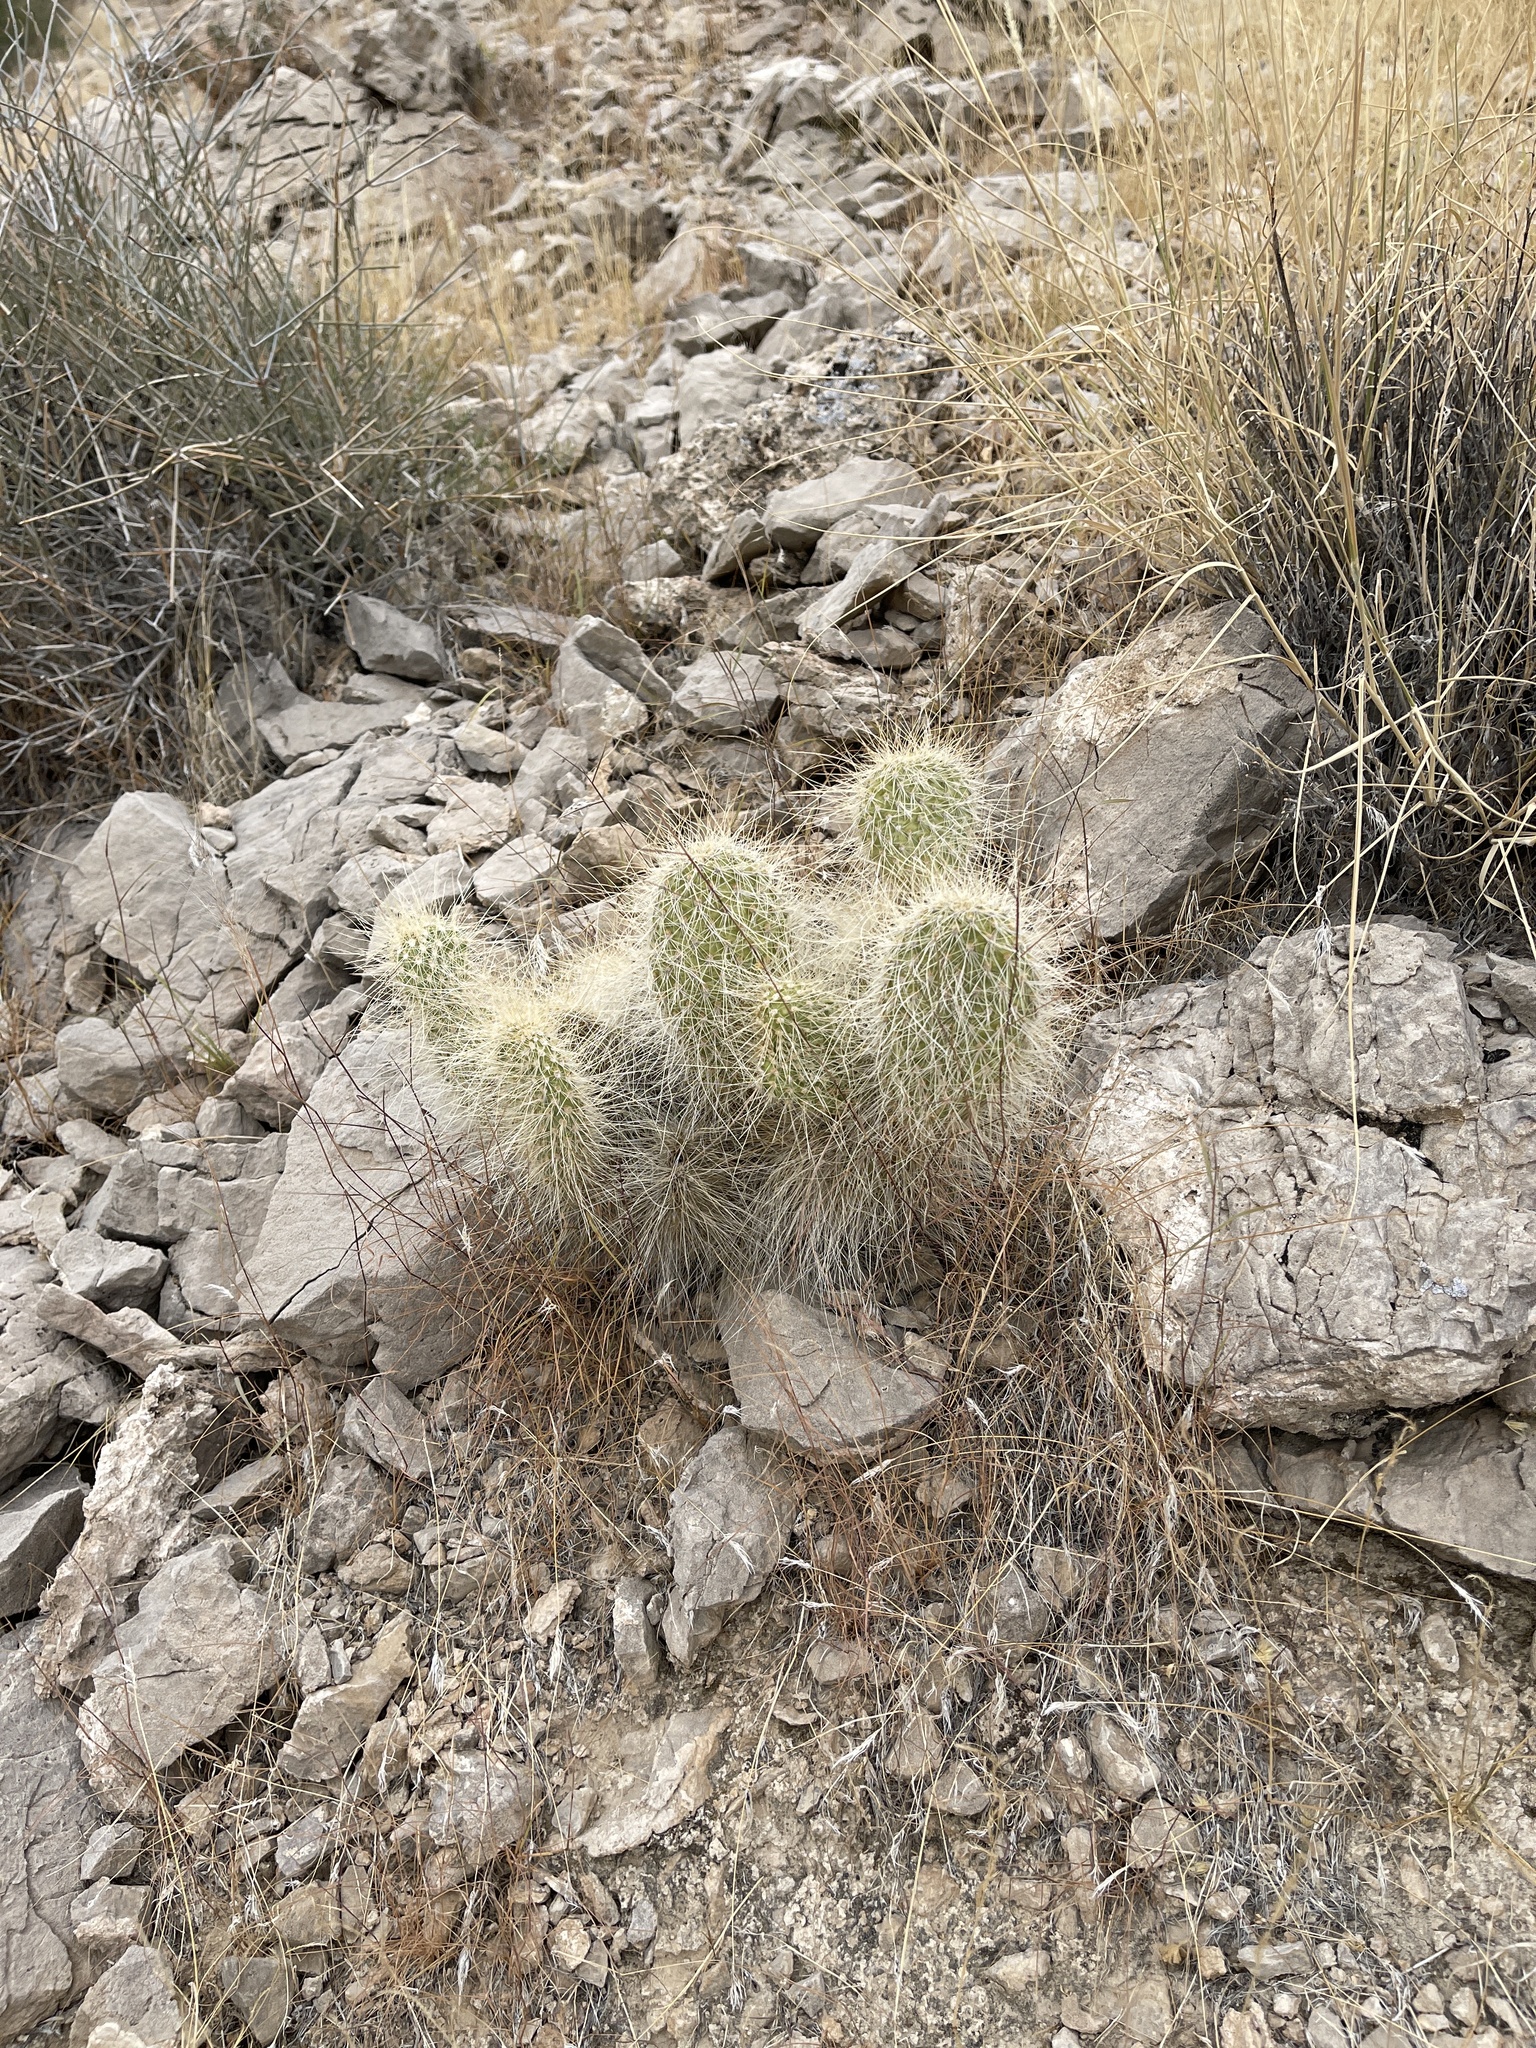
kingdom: Plantae
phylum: Tracheophyta
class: Magnoliopsida
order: Caryophyllales
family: Cactaceae
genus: Opuntia
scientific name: Opuntia polyacantha
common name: Plains prickly-pear
